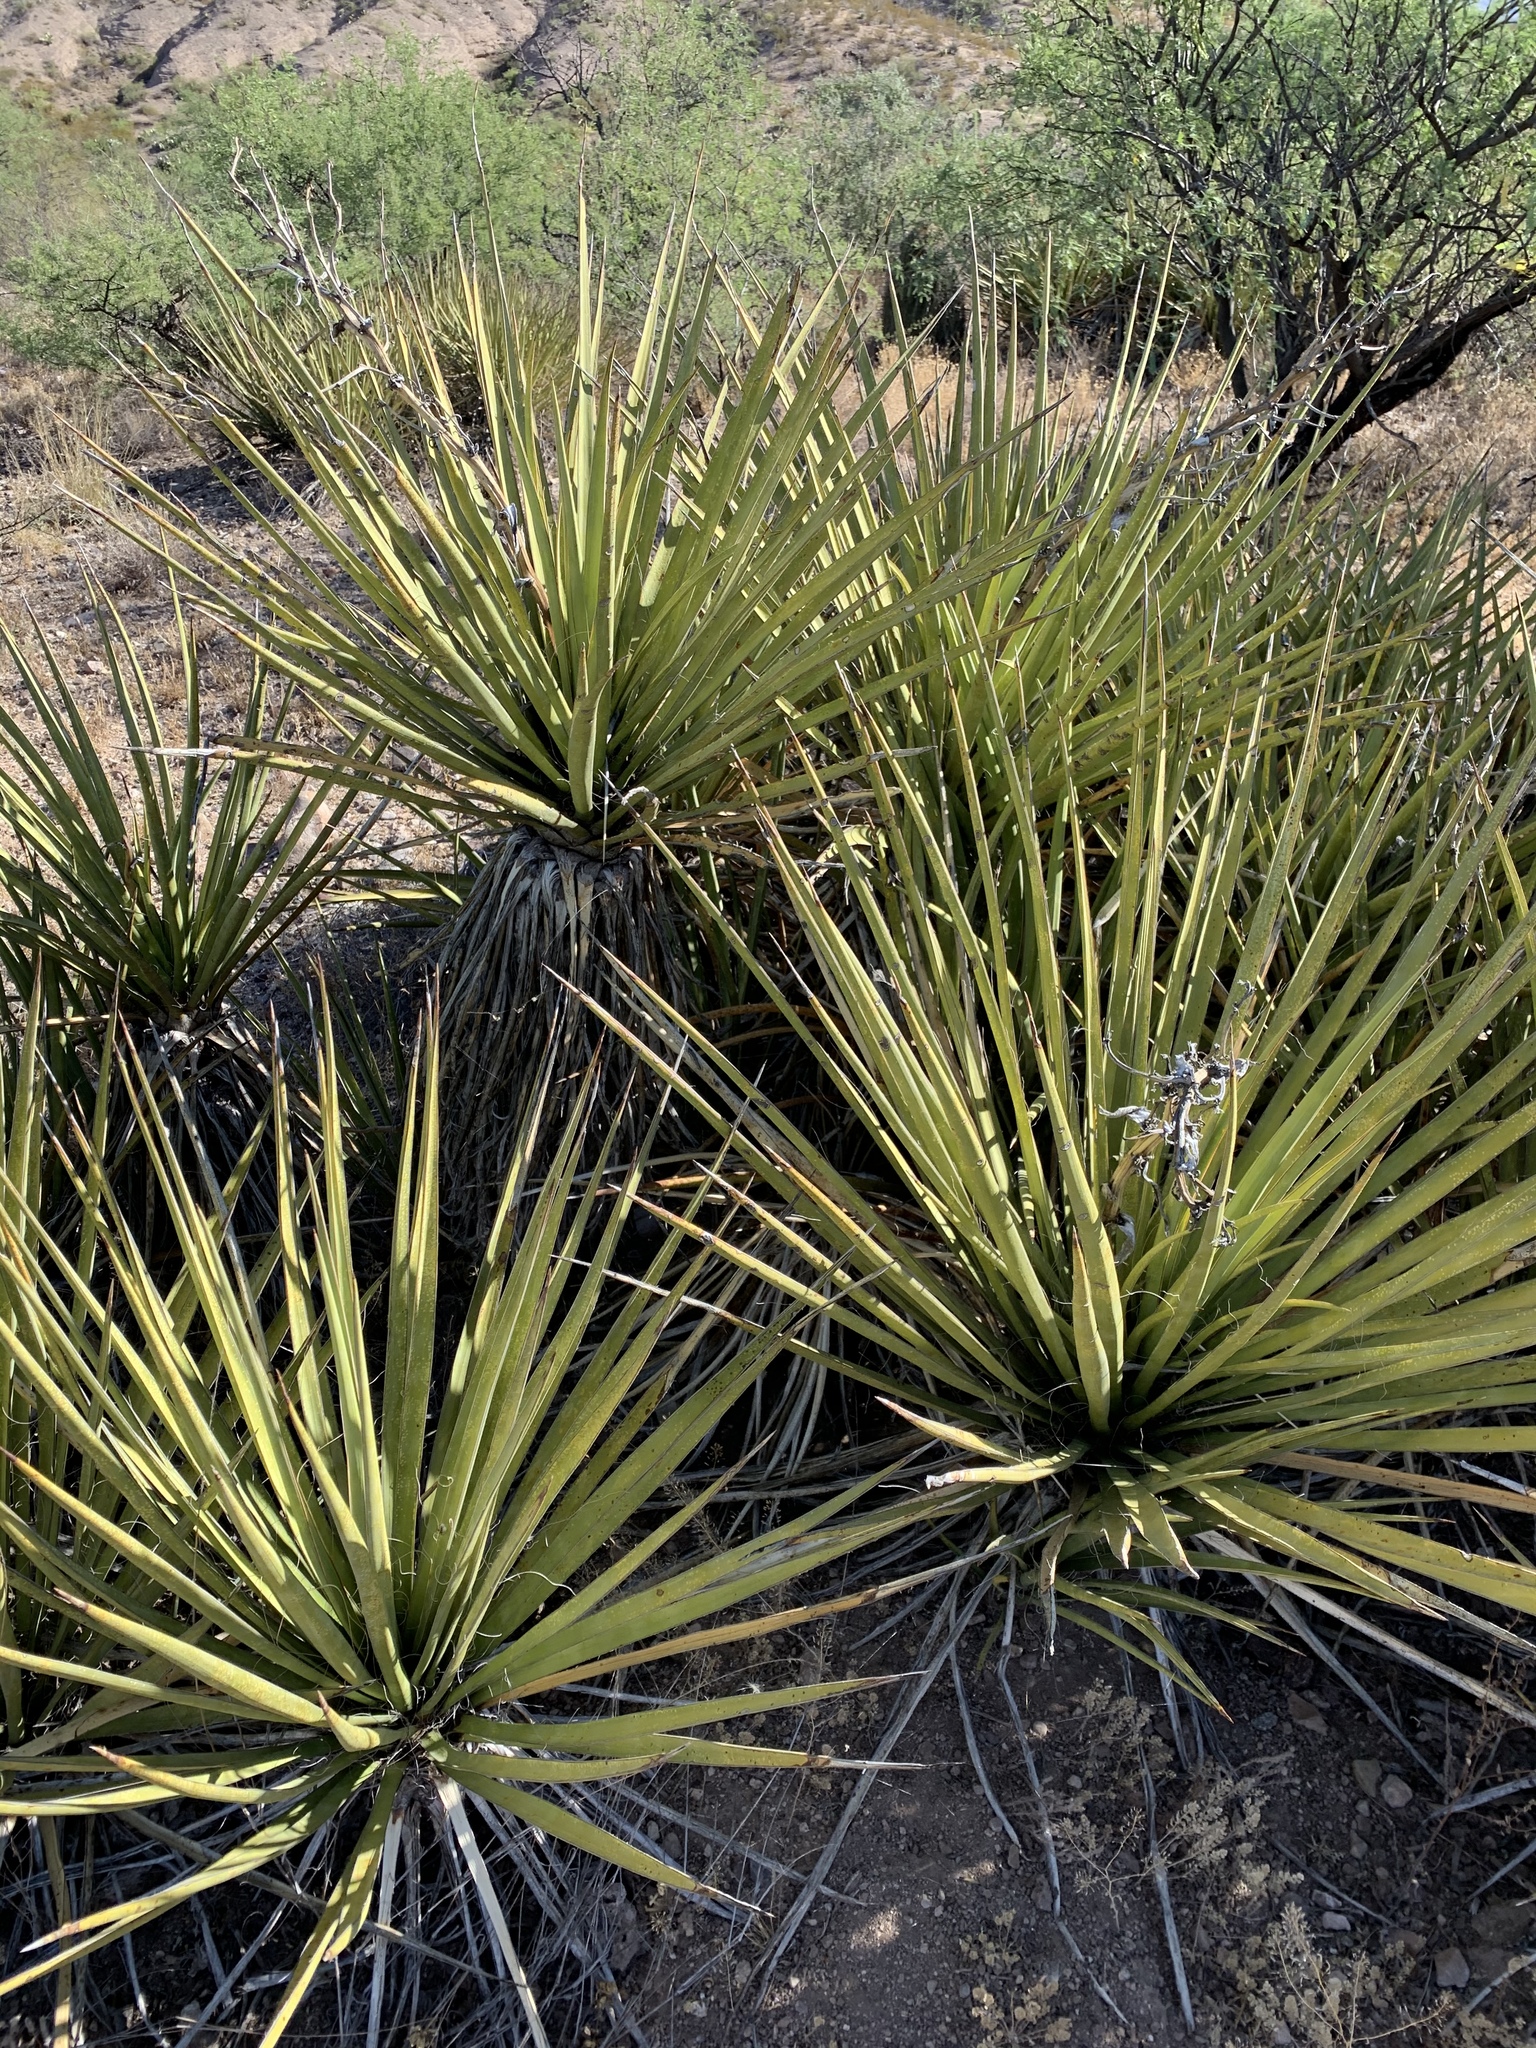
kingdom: Plantae
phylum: Tracheophyta
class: Liliopsida
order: Asparagales
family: Asparagaceae
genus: Yucca
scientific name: Yucca baccata
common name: Banana yucca
